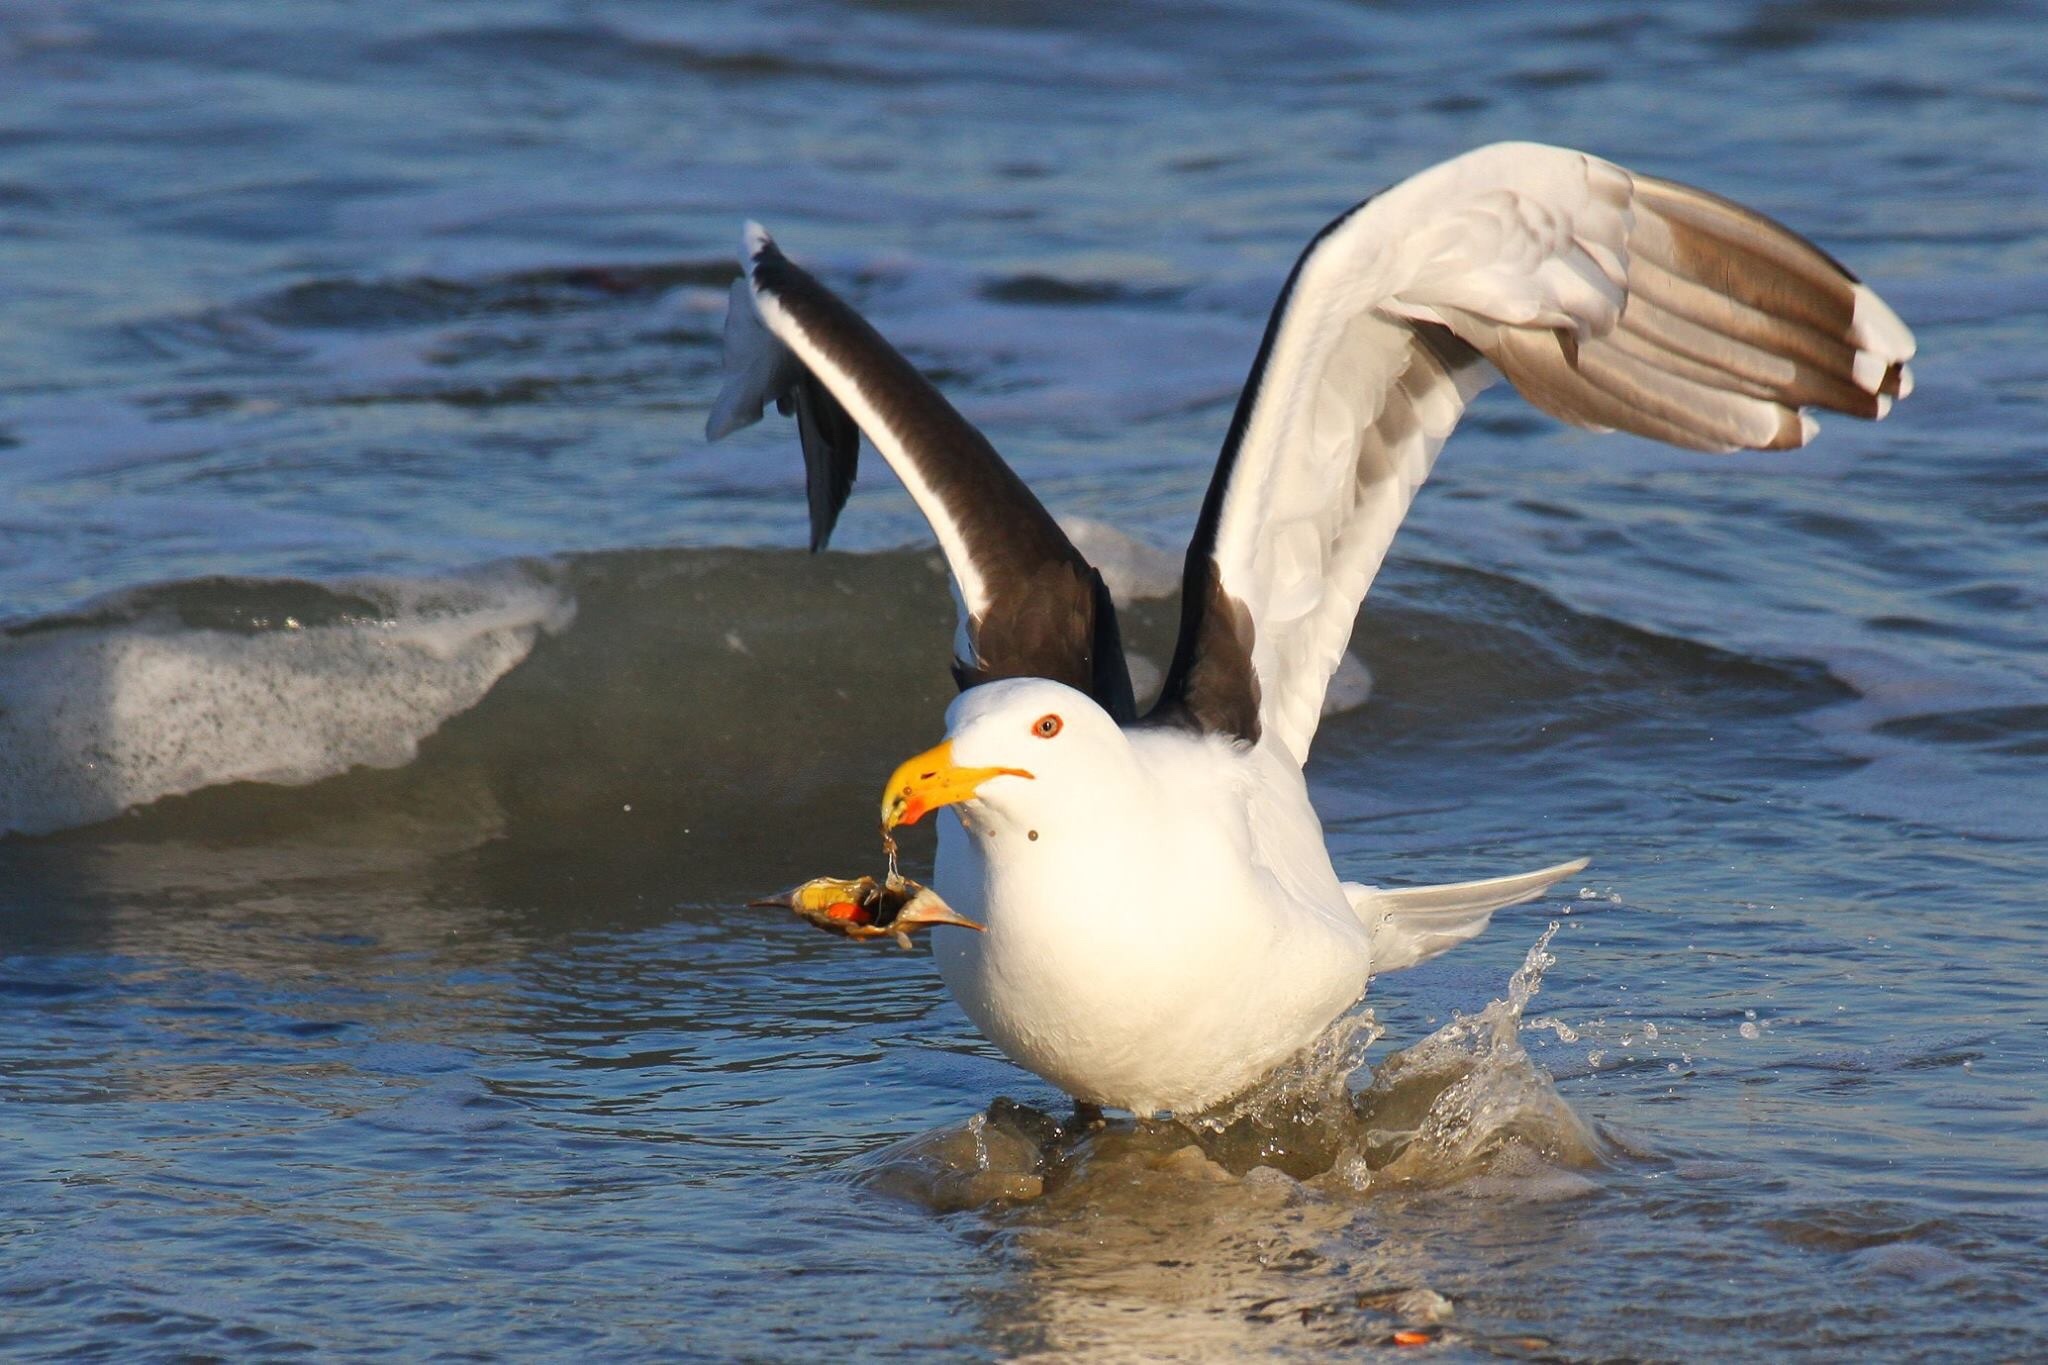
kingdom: Animalia
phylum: Chordata
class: Aves
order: Charadriiformes
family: Laridae
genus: Larus
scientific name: Larus marinus
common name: Great black-backed gull
